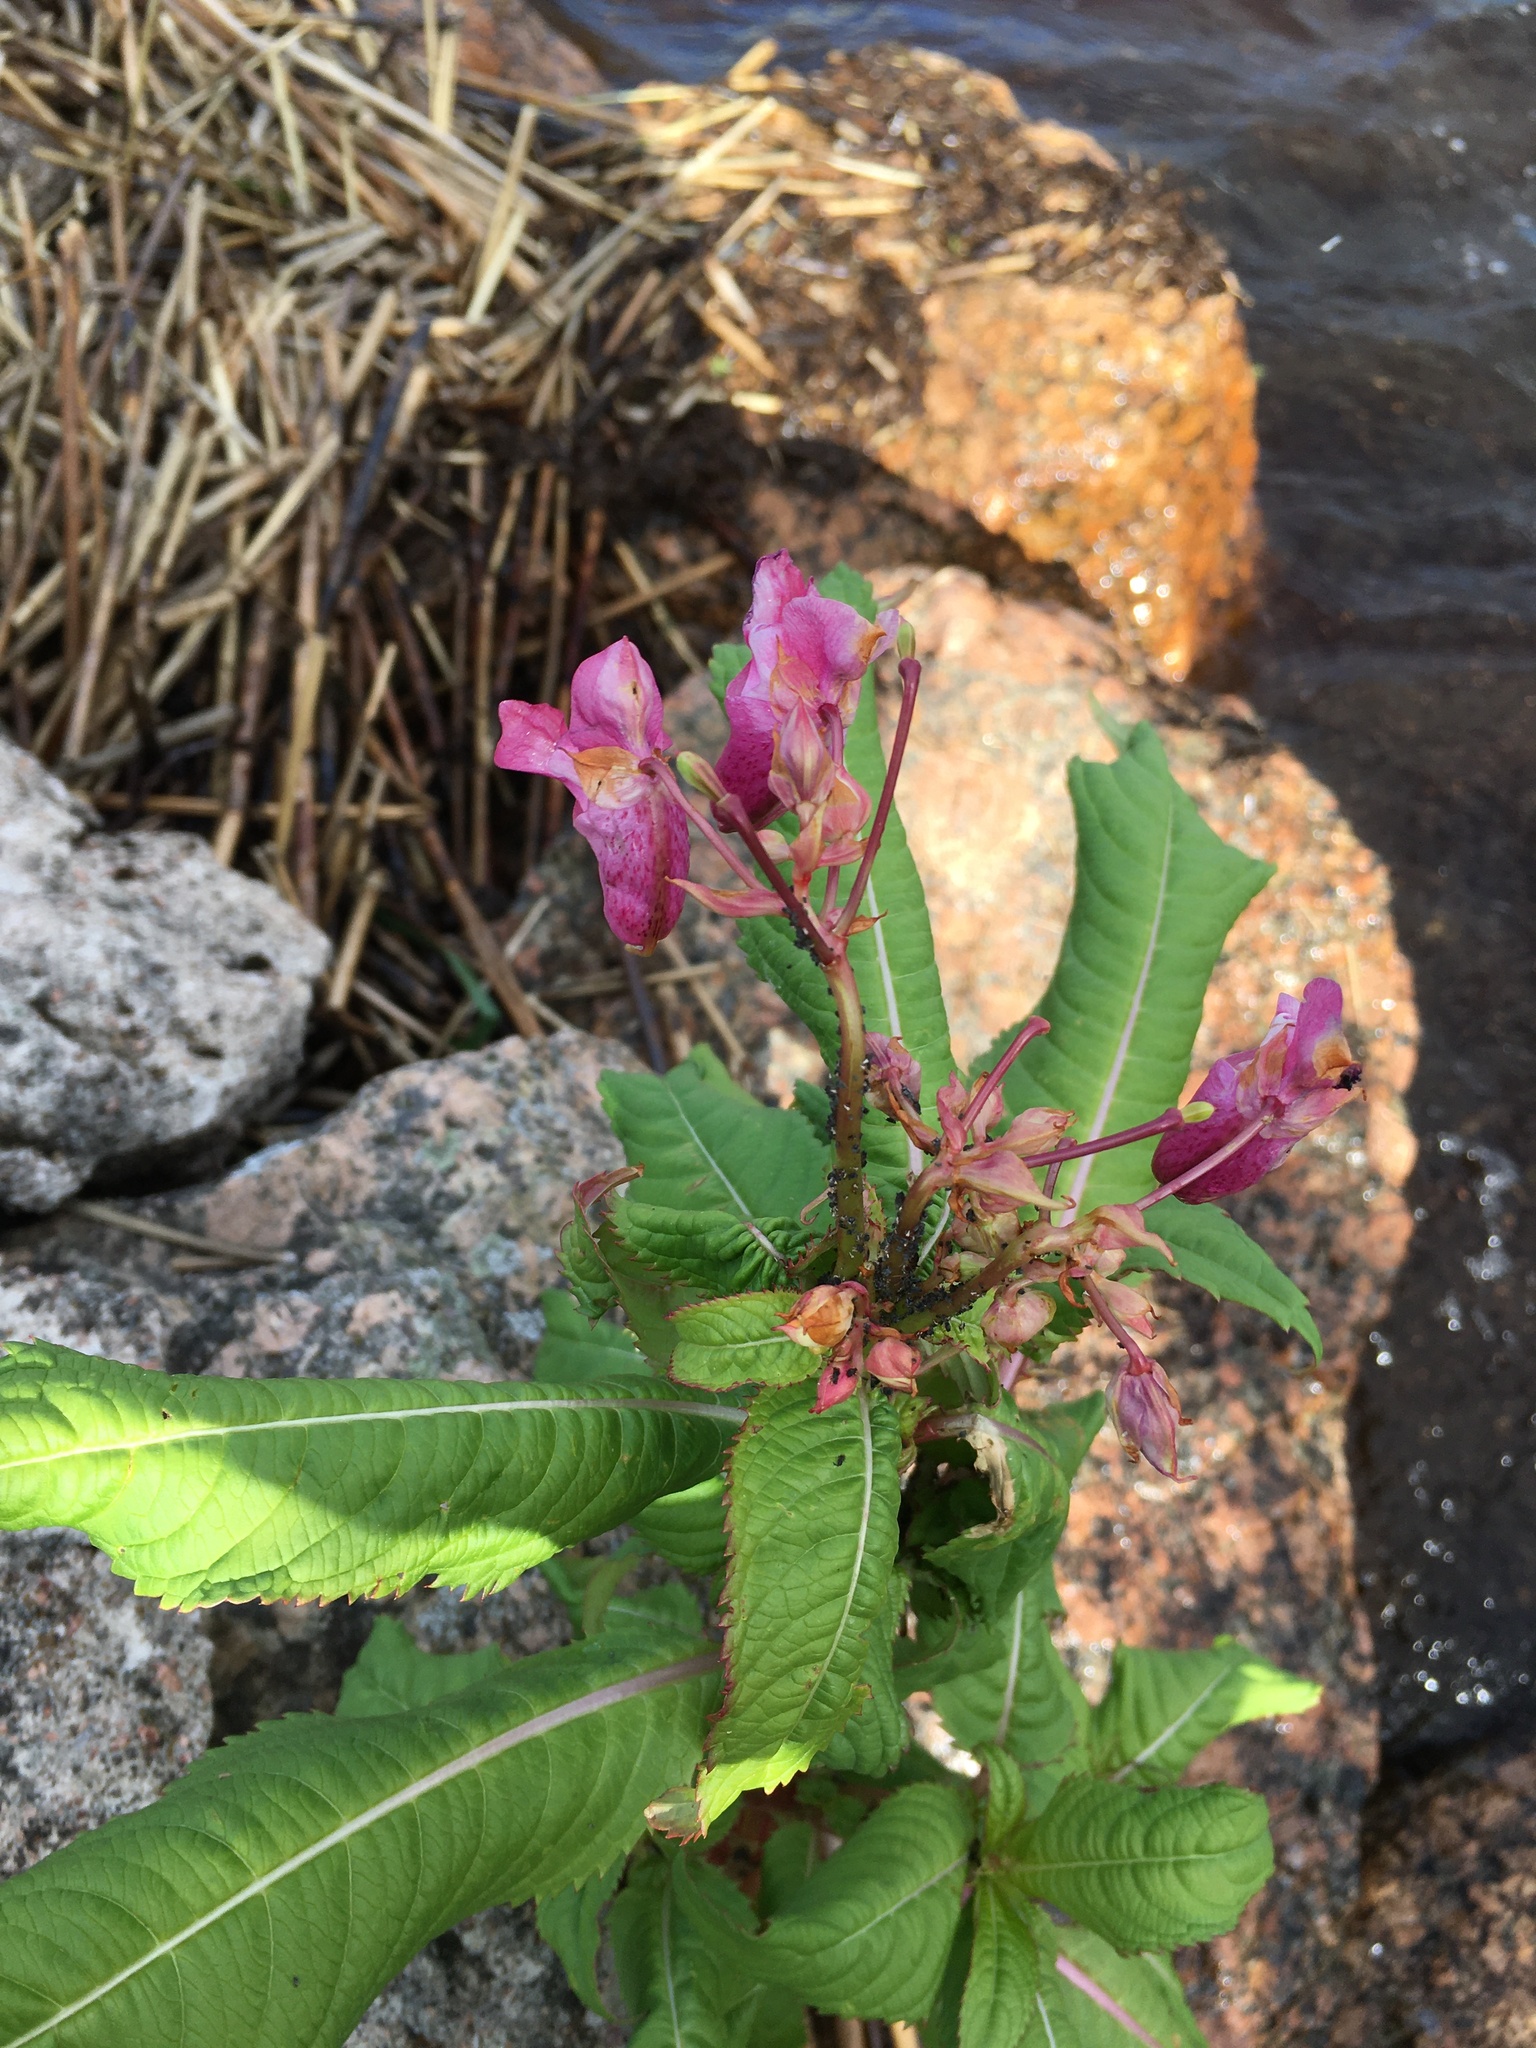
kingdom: Plantae
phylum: Tracheophyta
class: Magnoliopsida
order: Ericales
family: Balsaminaceae
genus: Impatiens
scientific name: Impatiens glandulifera
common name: Himalayan balsam
